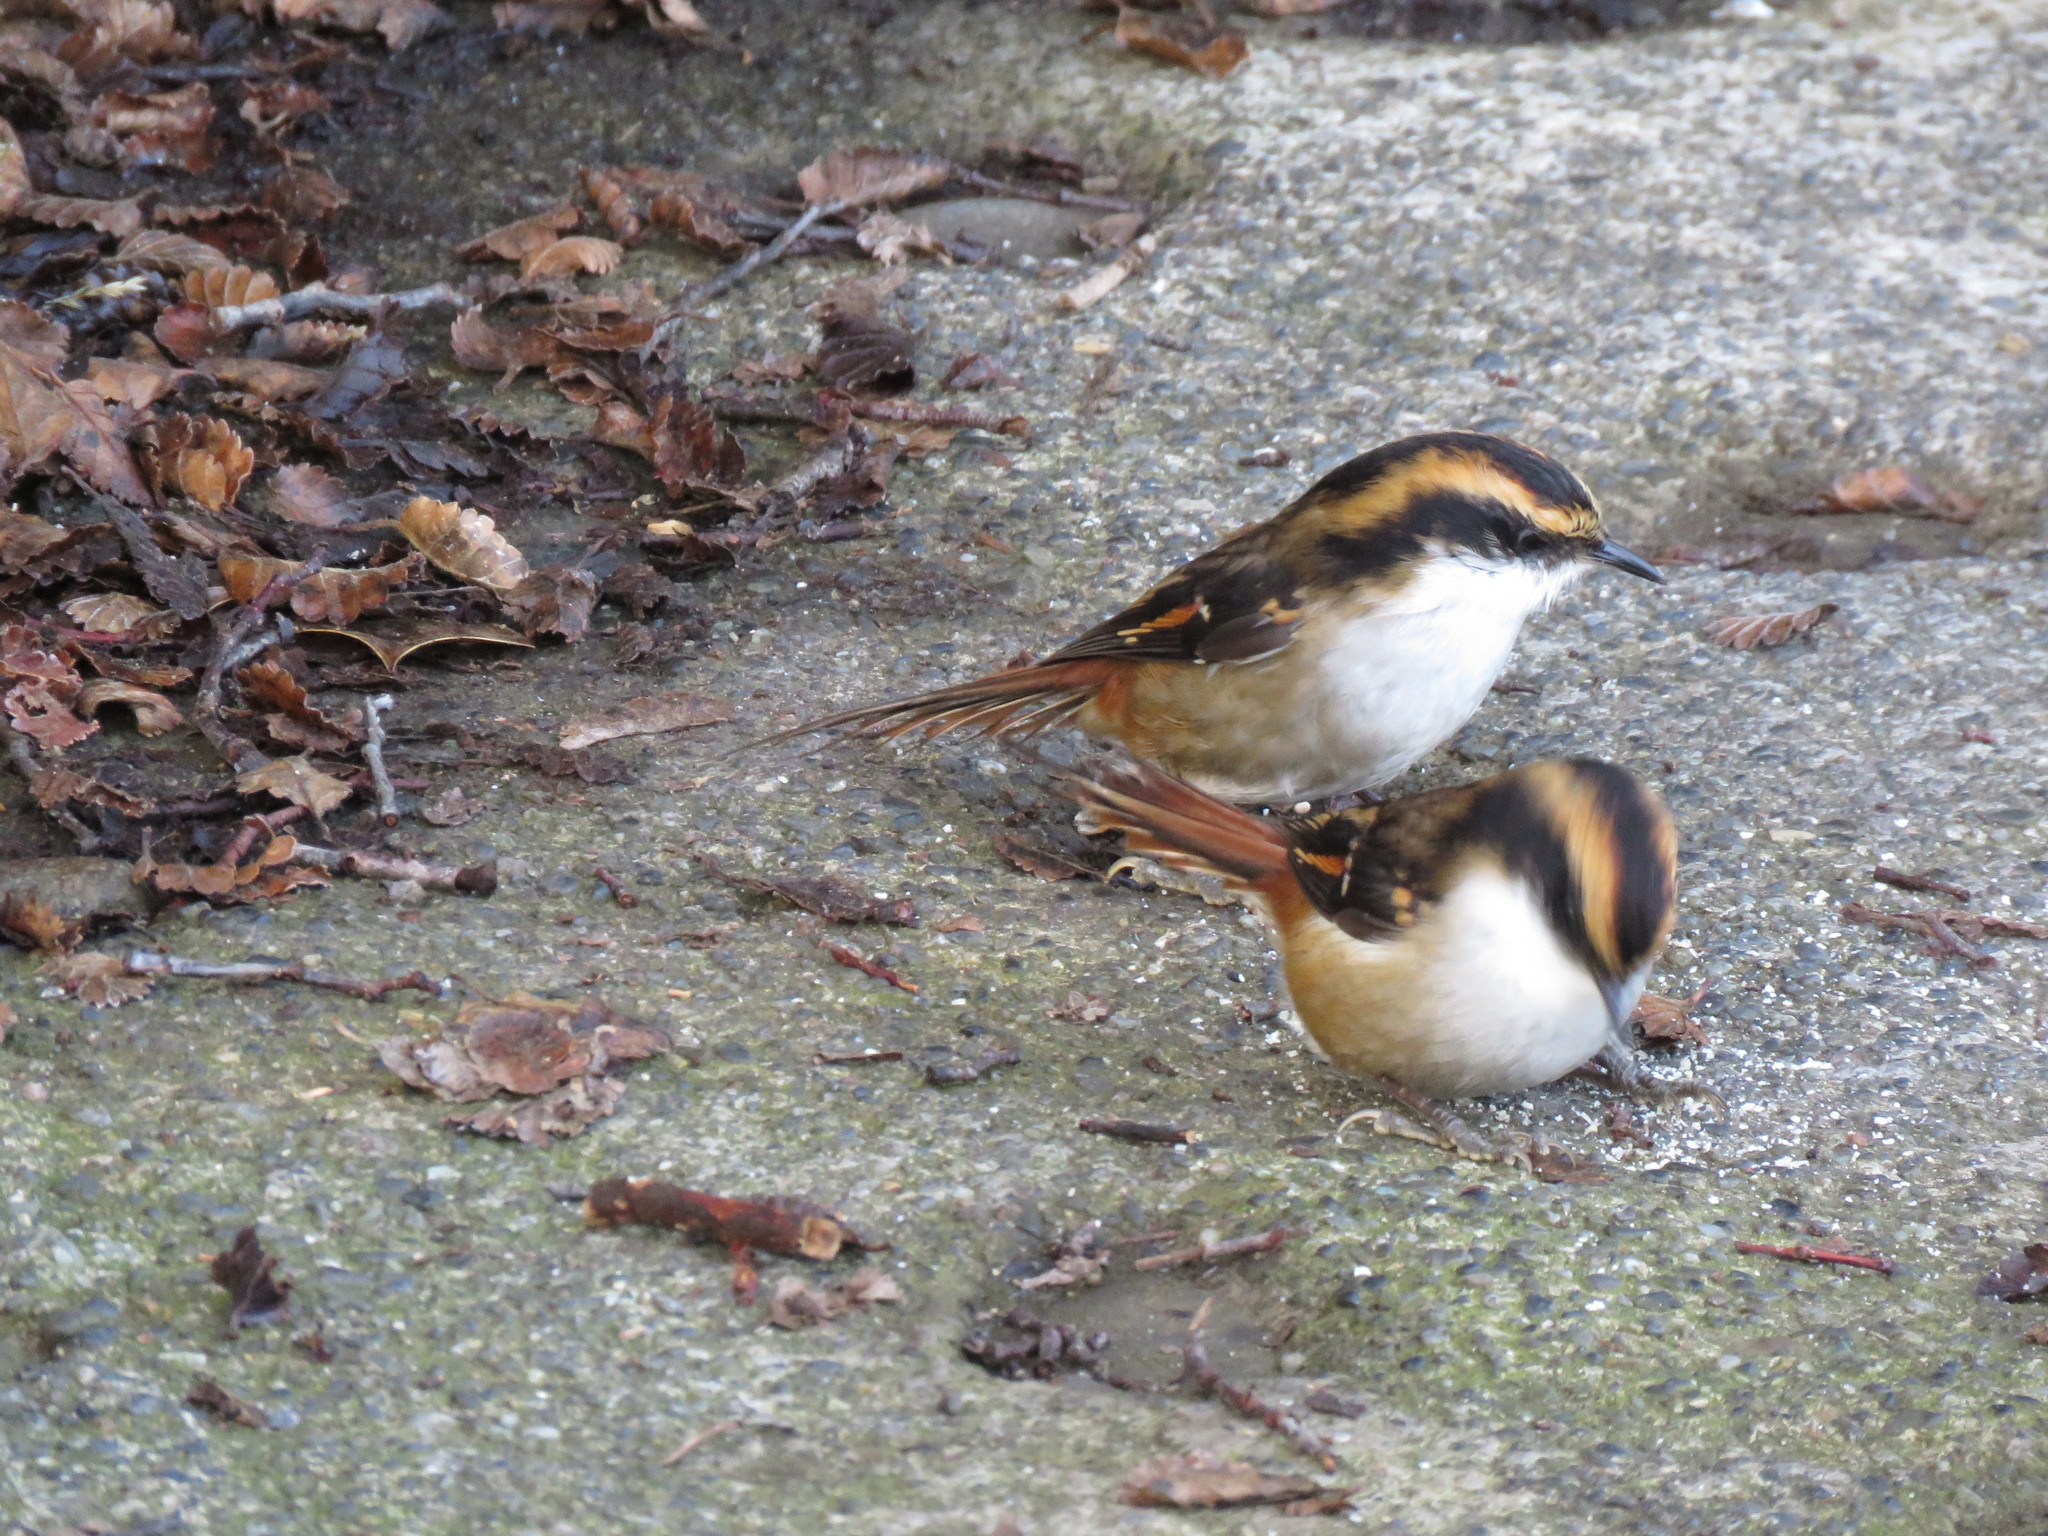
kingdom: Animalia
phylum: Chordata
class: Aves
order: Passeriformes
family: Furnariidae
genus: Aphrastura
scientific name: Aphrastura spinicauda
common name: Thorn-tailed rayadito
